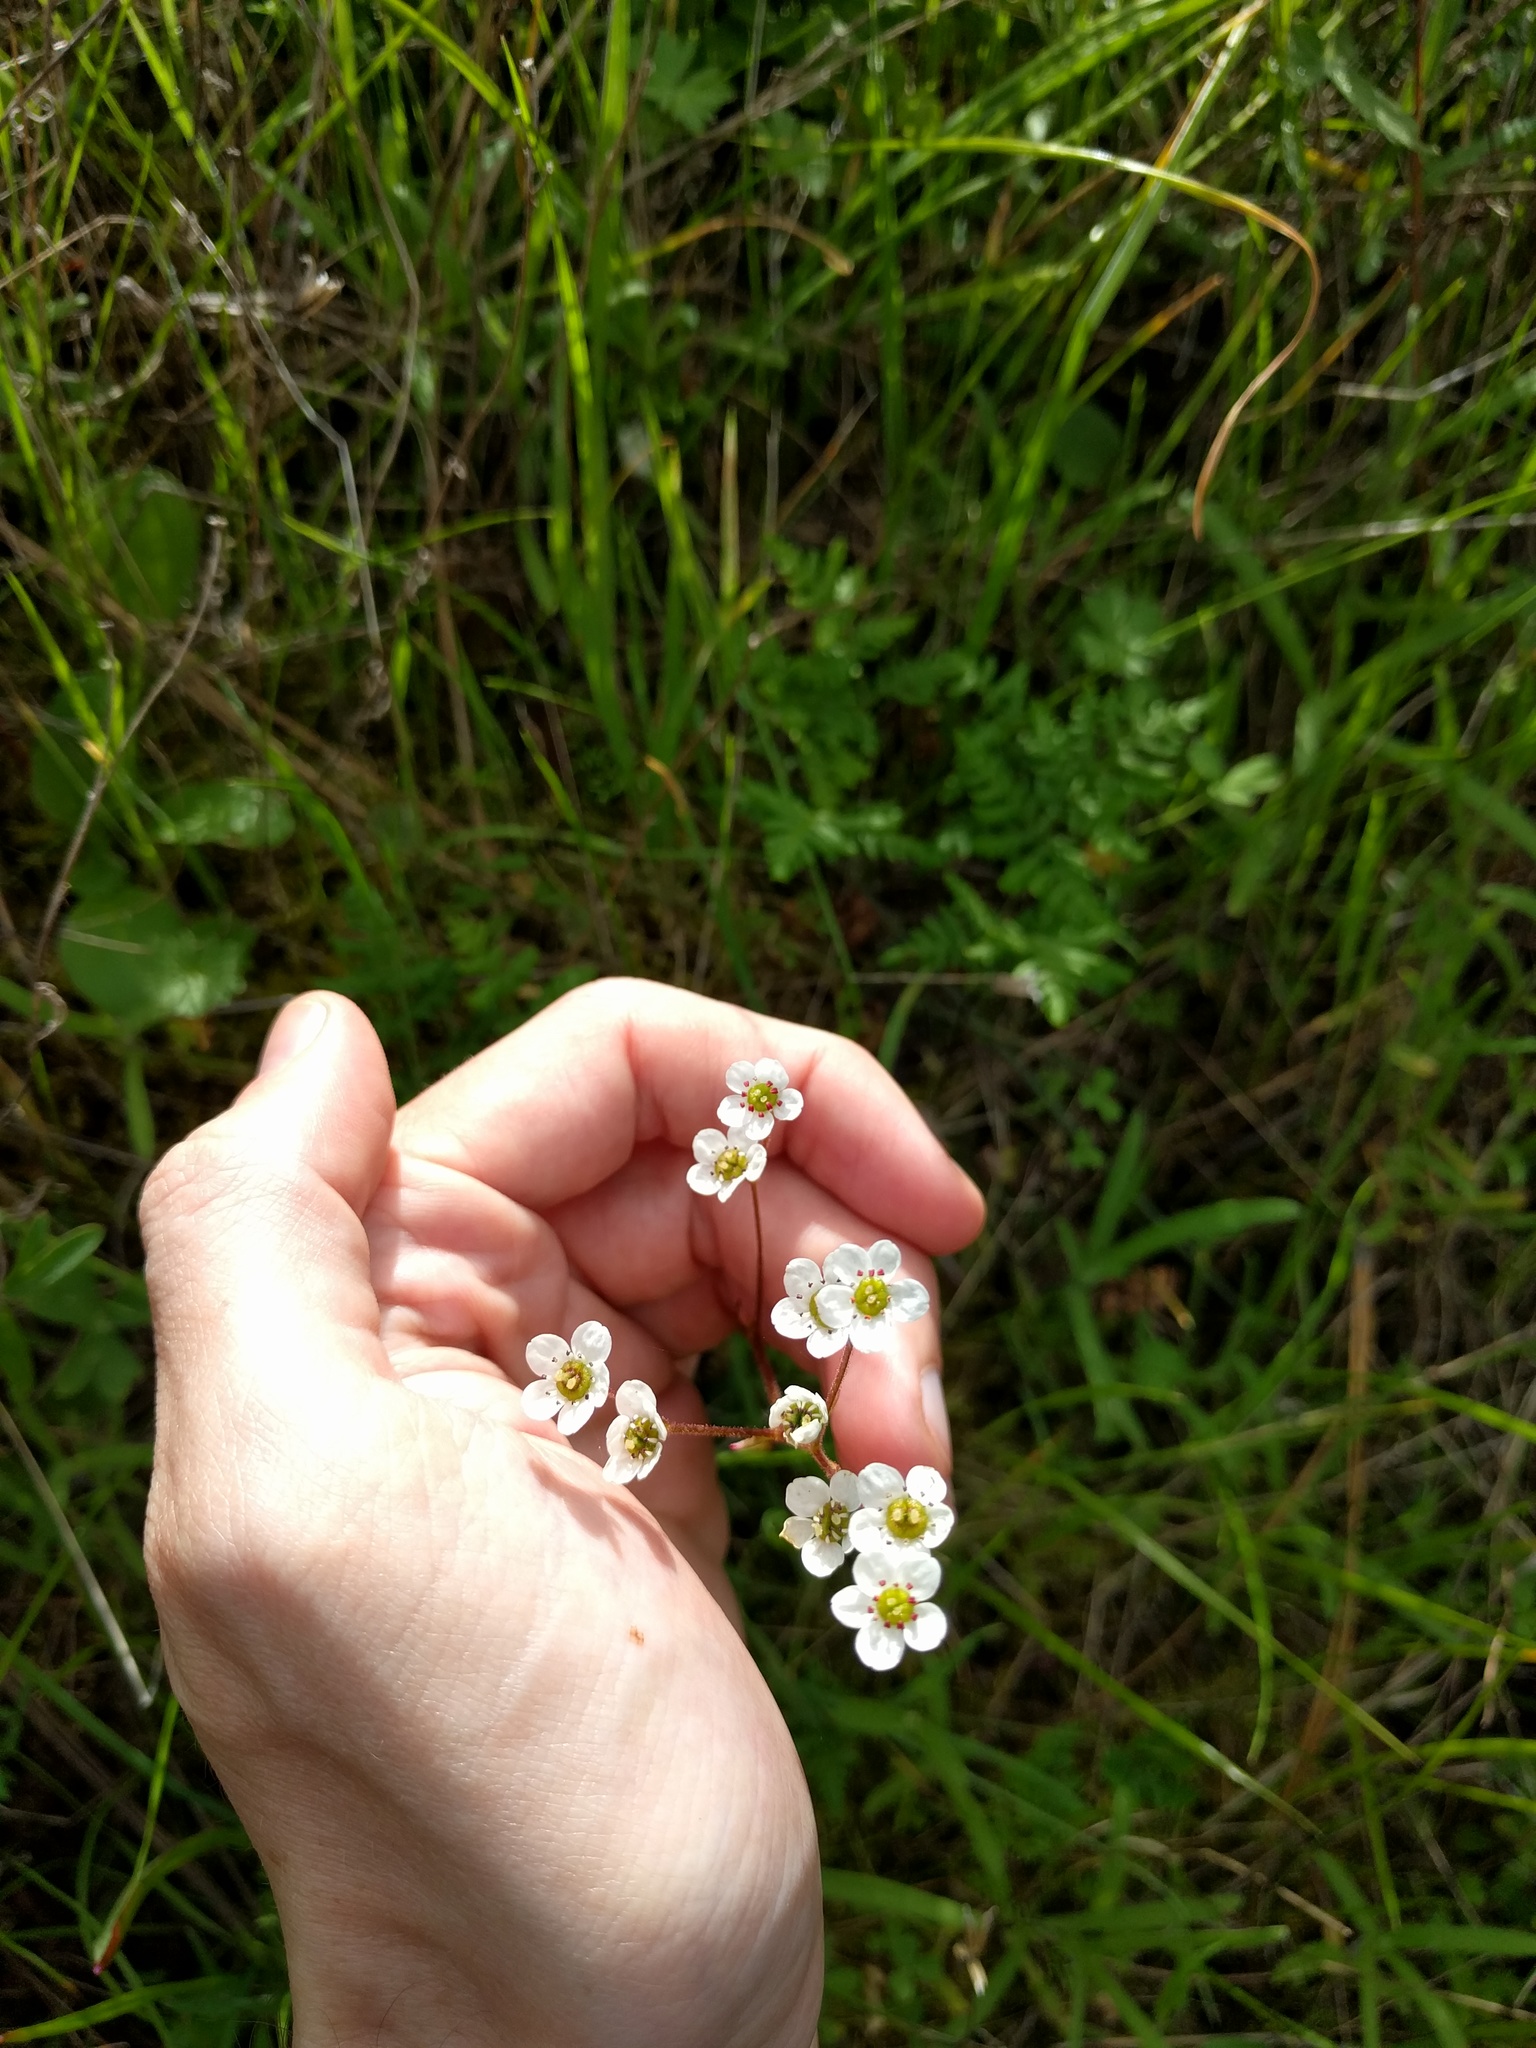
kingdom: Plantae
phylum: Tracheophyta
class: Magnoliopsida
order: Saxifragales
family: Saxifragaceae
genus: Micranthes
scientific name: Micranthes californica
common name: California saxifrage
